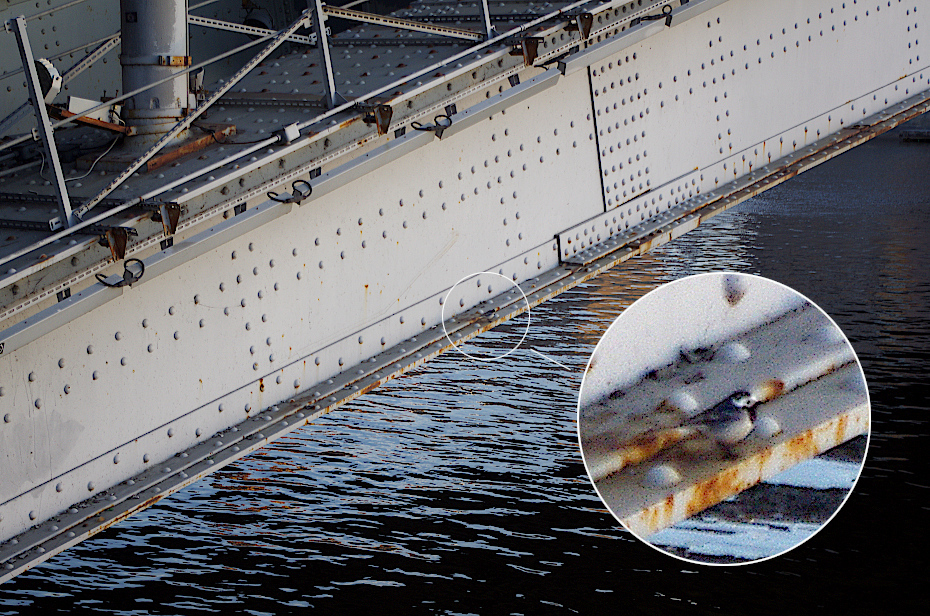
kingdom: Animalia
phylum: Chordata
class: Aves
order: Passeriformes
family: Motacillidae
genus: Motacilla
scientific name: Motacilla alba
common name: White wagtail
